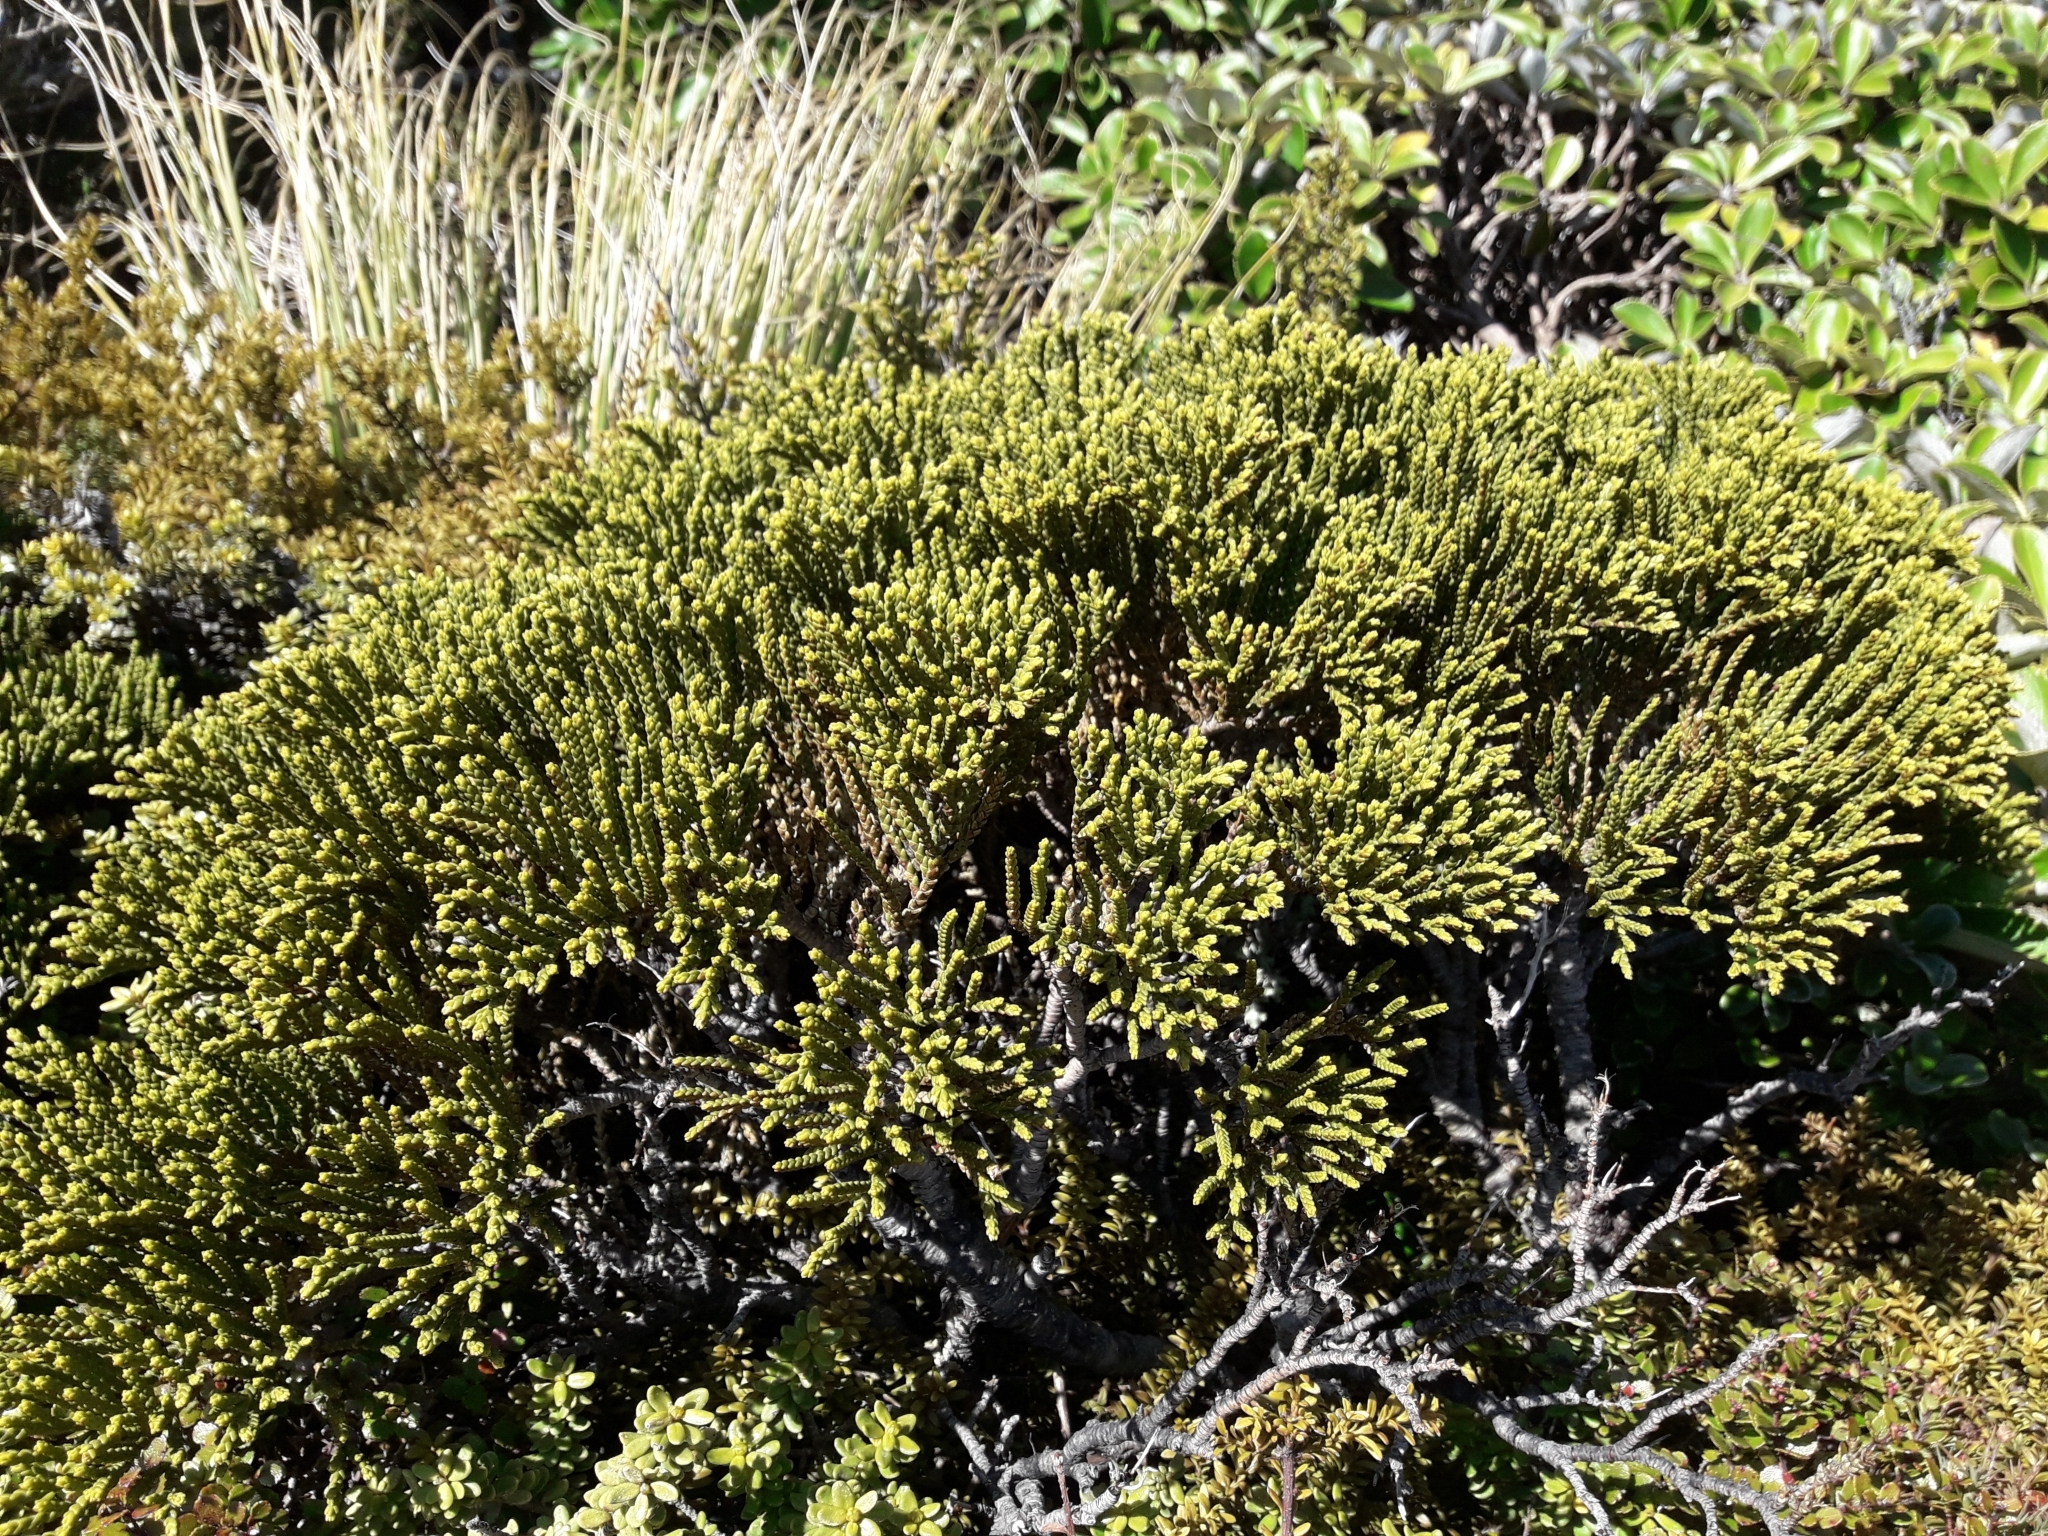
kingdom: Plantae
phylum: Tracheophyta
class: Magnoliopsida
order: Lamiales
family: Plantaginaceae
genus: Veronica
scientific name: Veronica tetragona
